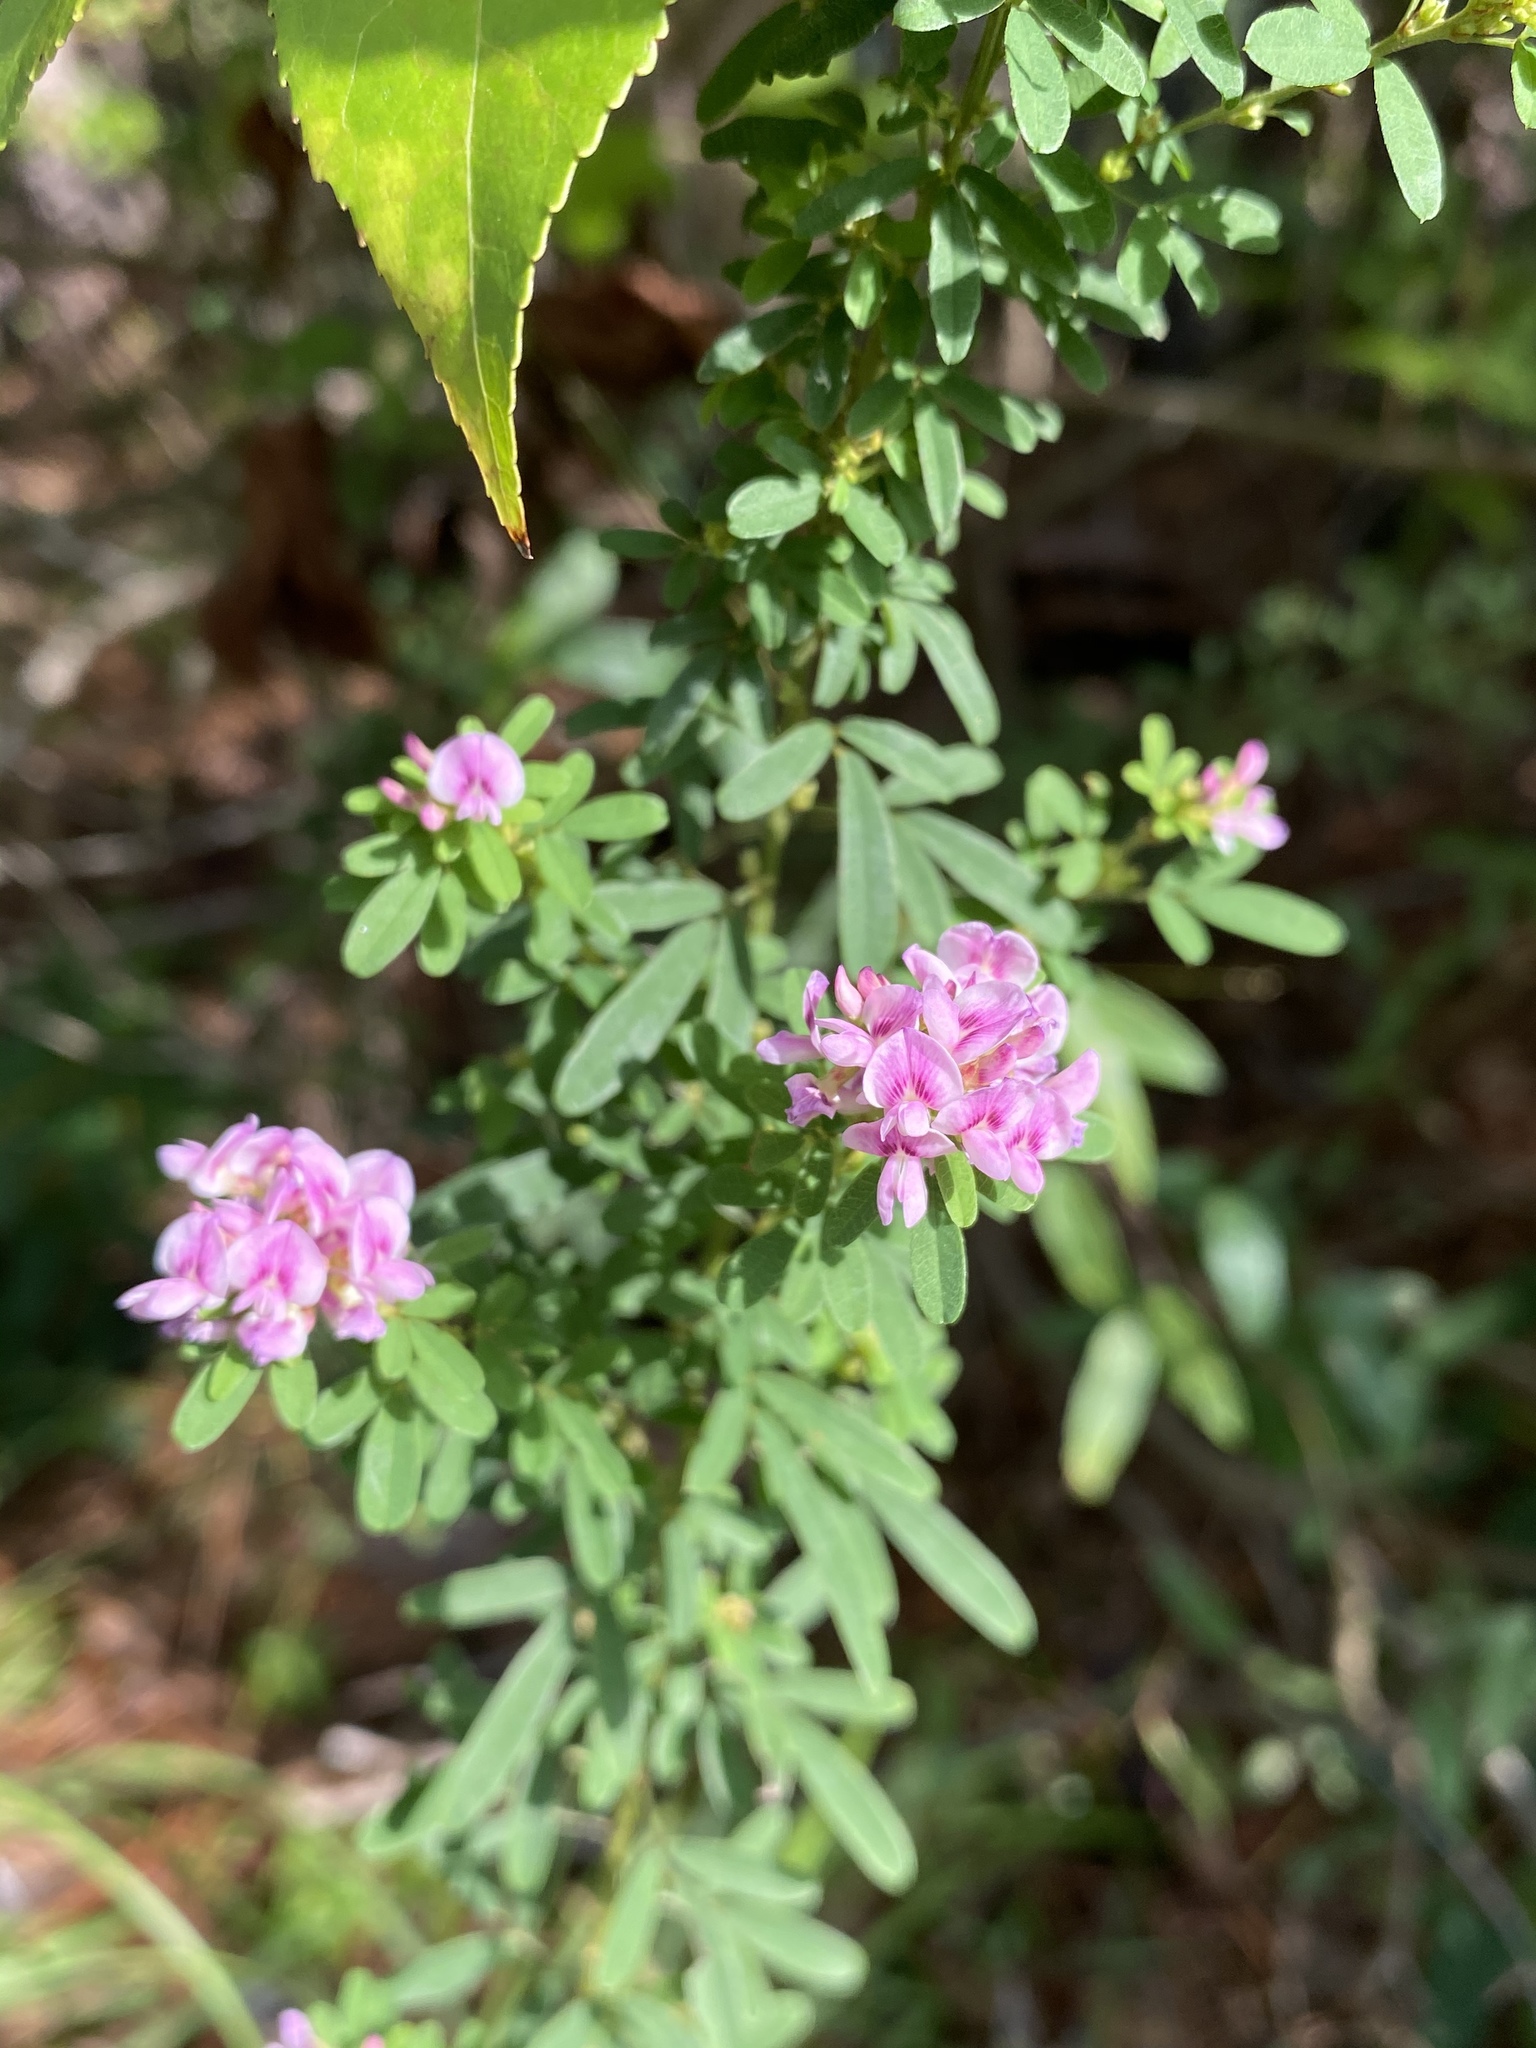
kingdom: Plantae
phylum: Tracheophyta
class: Magnoliopsida
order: Fabales
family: Fabaceae
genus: Lespedeza
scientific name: Lespedeza virginica
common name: Slender bush-clover
